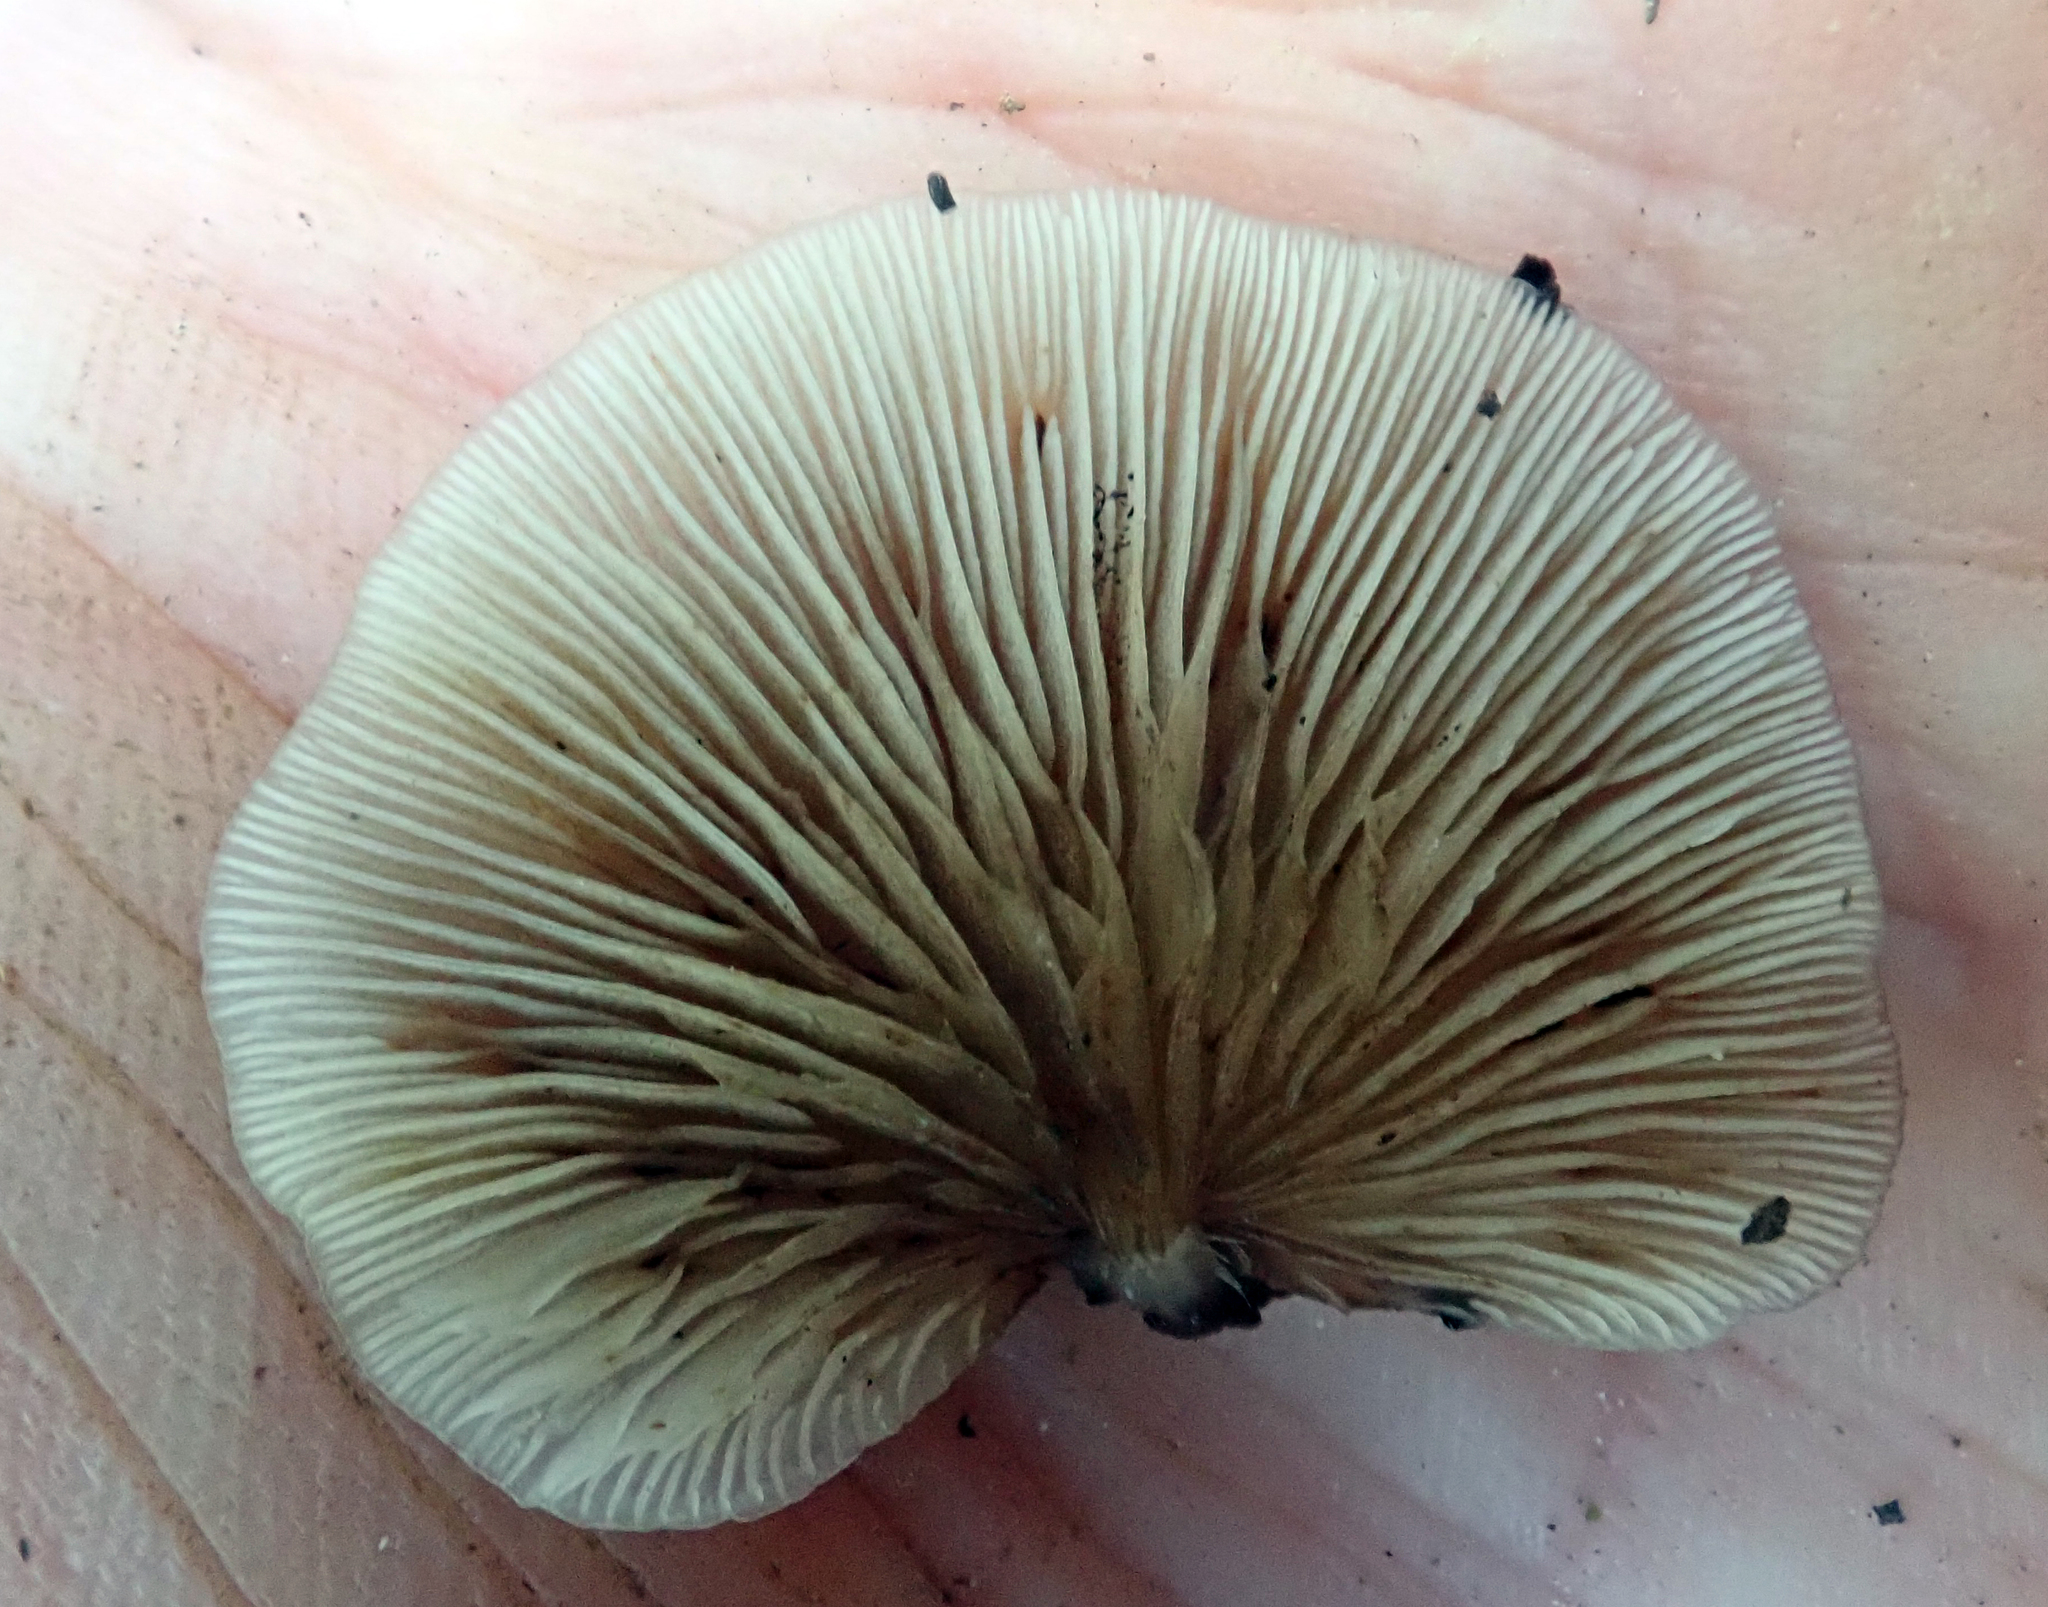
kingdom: Fungi
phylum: Basidiomycota
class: Agaricomycetes
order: Agaricales
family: Mycenaceae
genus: Panellus
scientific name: Panellus longinquus
